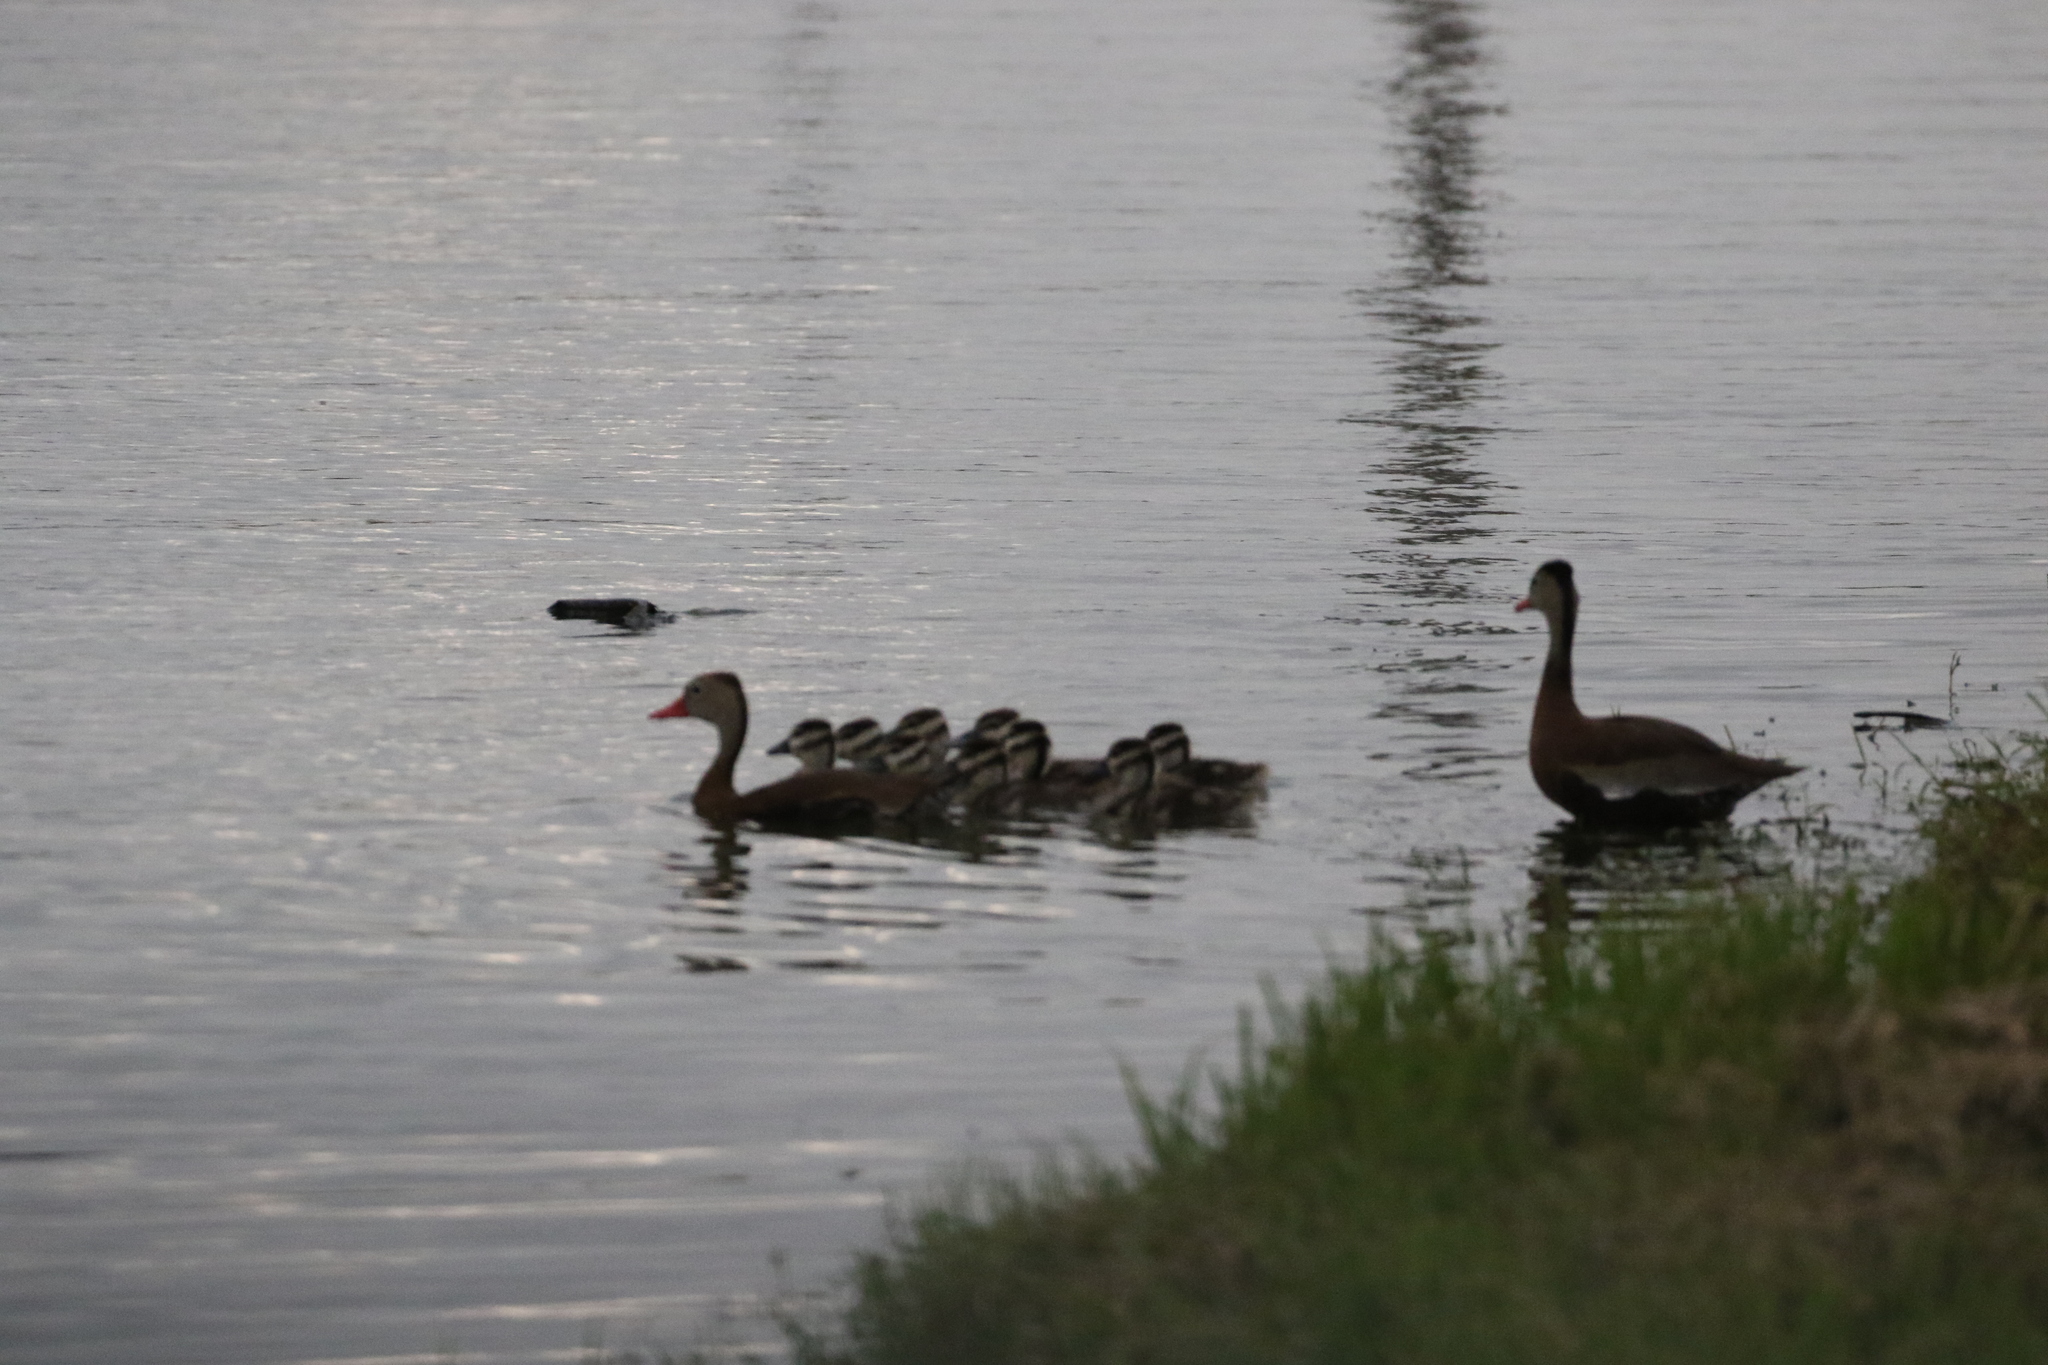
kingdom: Animalia
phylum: Chordata
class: Aves
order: Anseriformes
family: Anatidae
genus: Dendrocygna
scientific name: Dendrocygna autumnalis
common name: Black-bellied whistling duck
